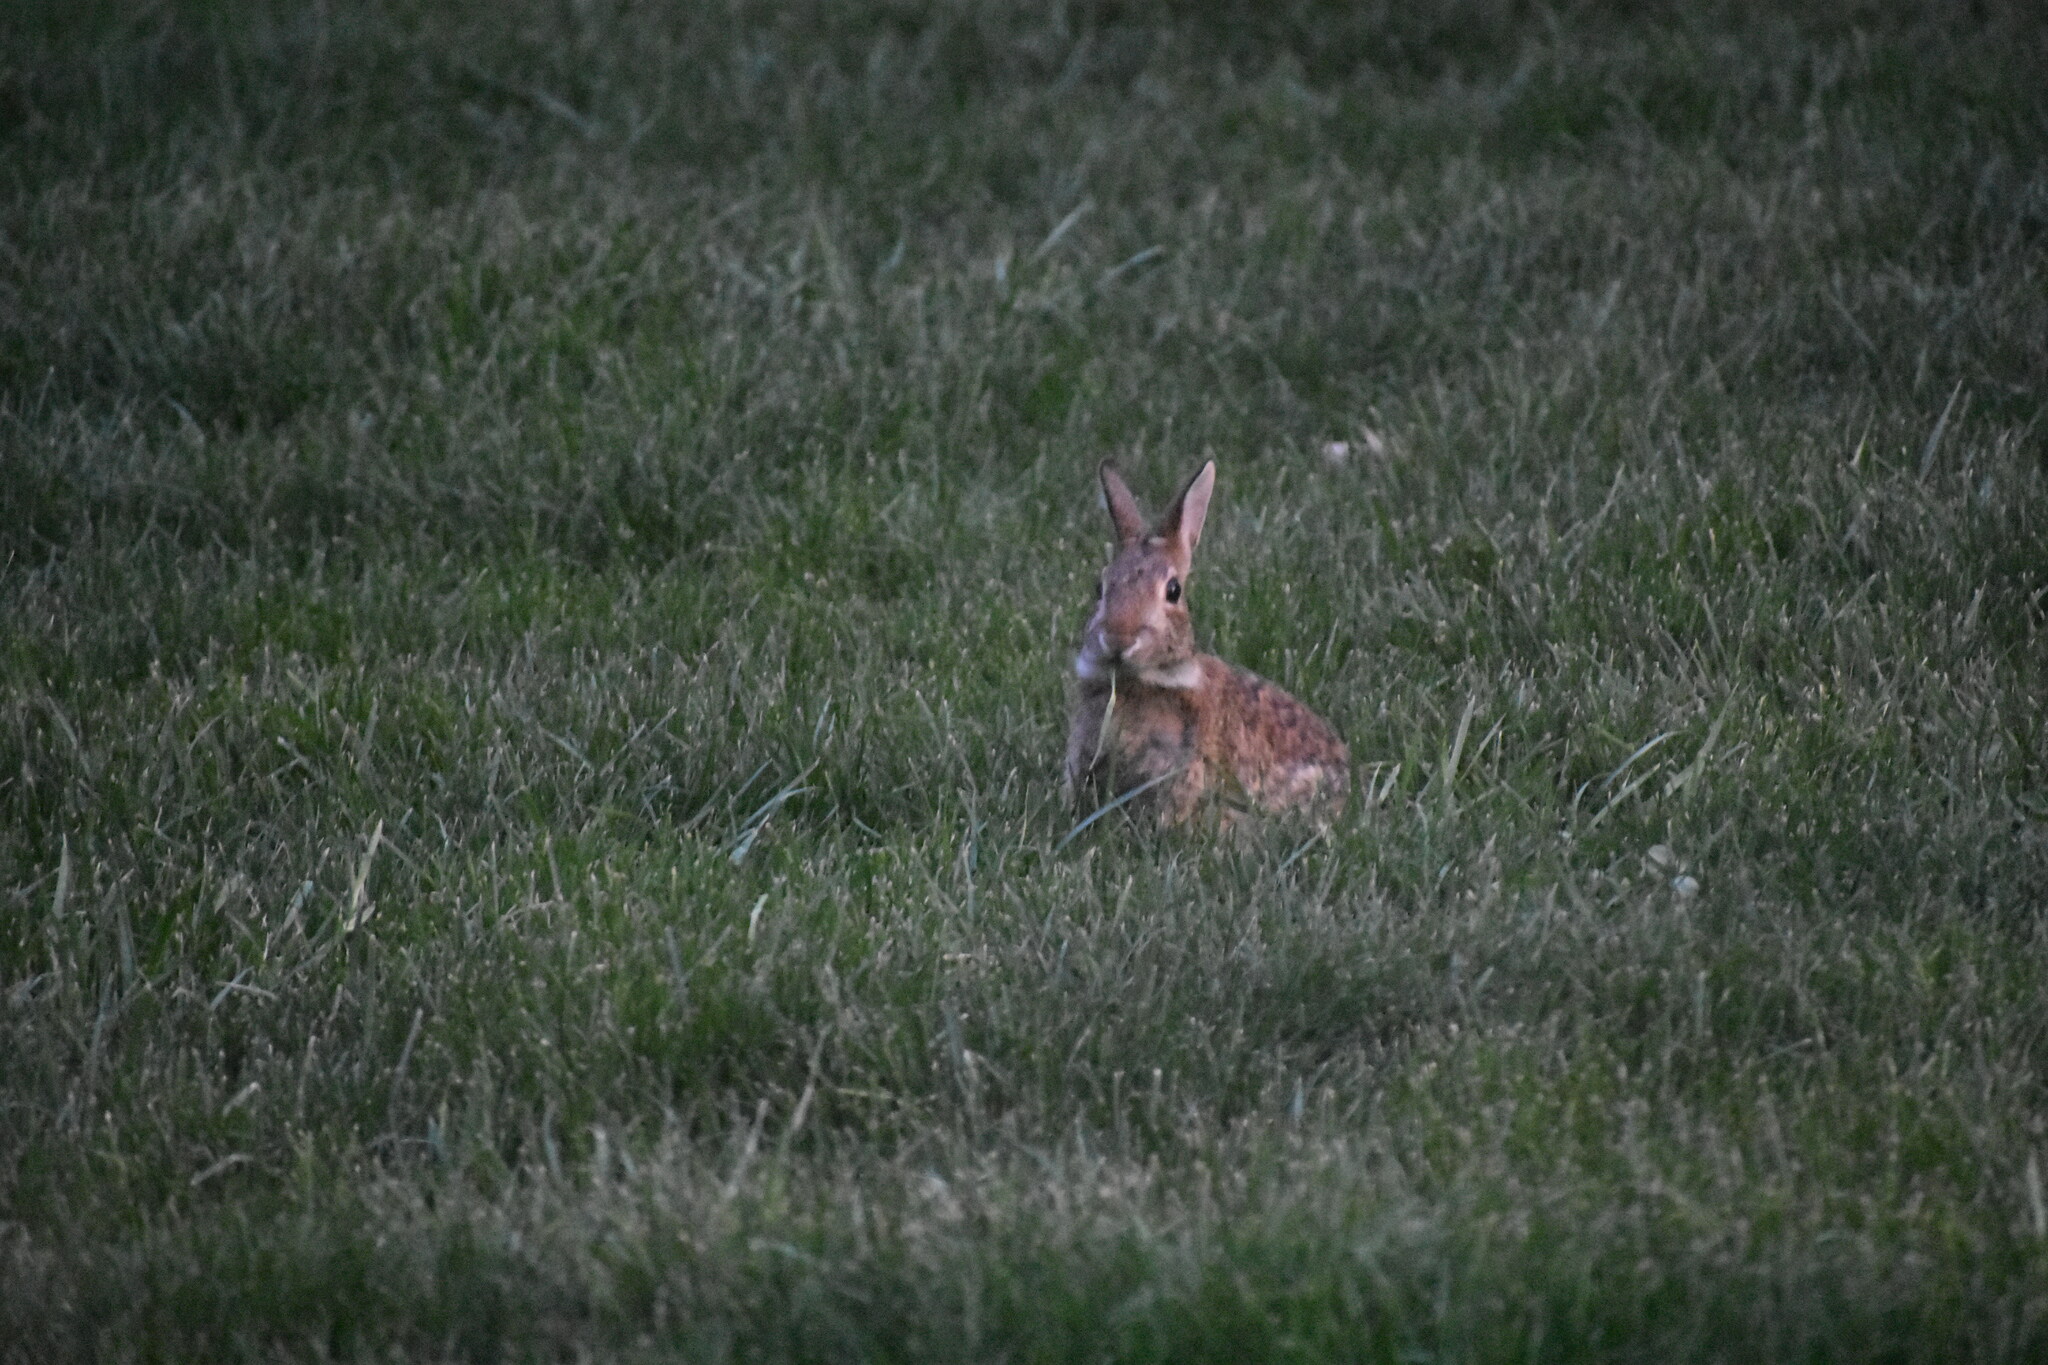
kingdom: Animalia
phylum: Chordata
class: Mammalia
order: Lagomorpha
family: Leporidae
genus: Sylvilagus
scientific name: Sylvilagus floridanus
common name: Eastern cottontail
